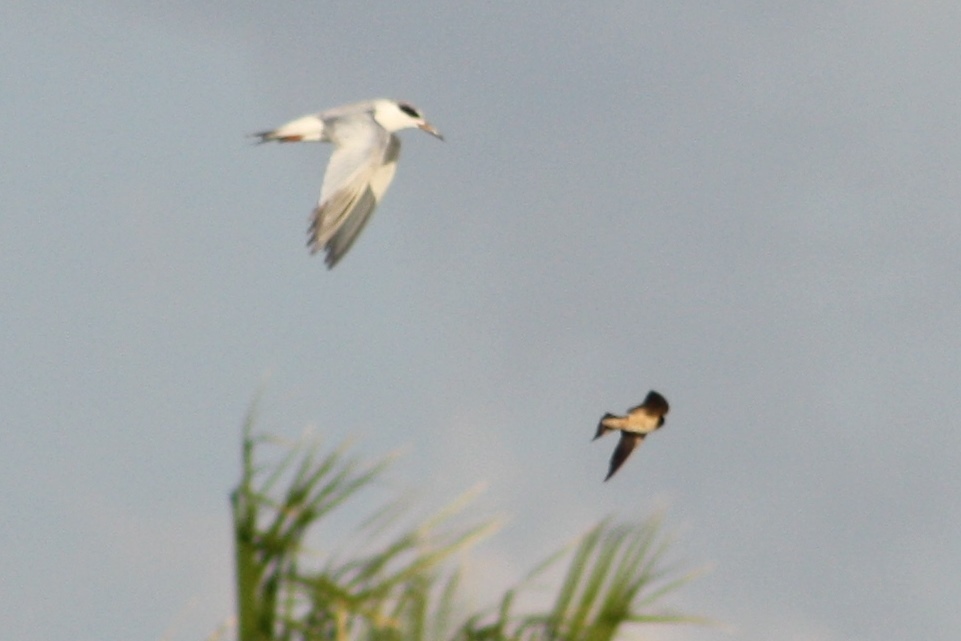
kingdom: Animalia
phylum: Chordata
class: Aves
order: Charadriiformes
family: Laridae
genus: Sterna
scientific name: Sterna forsteri
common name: Forster's tern
